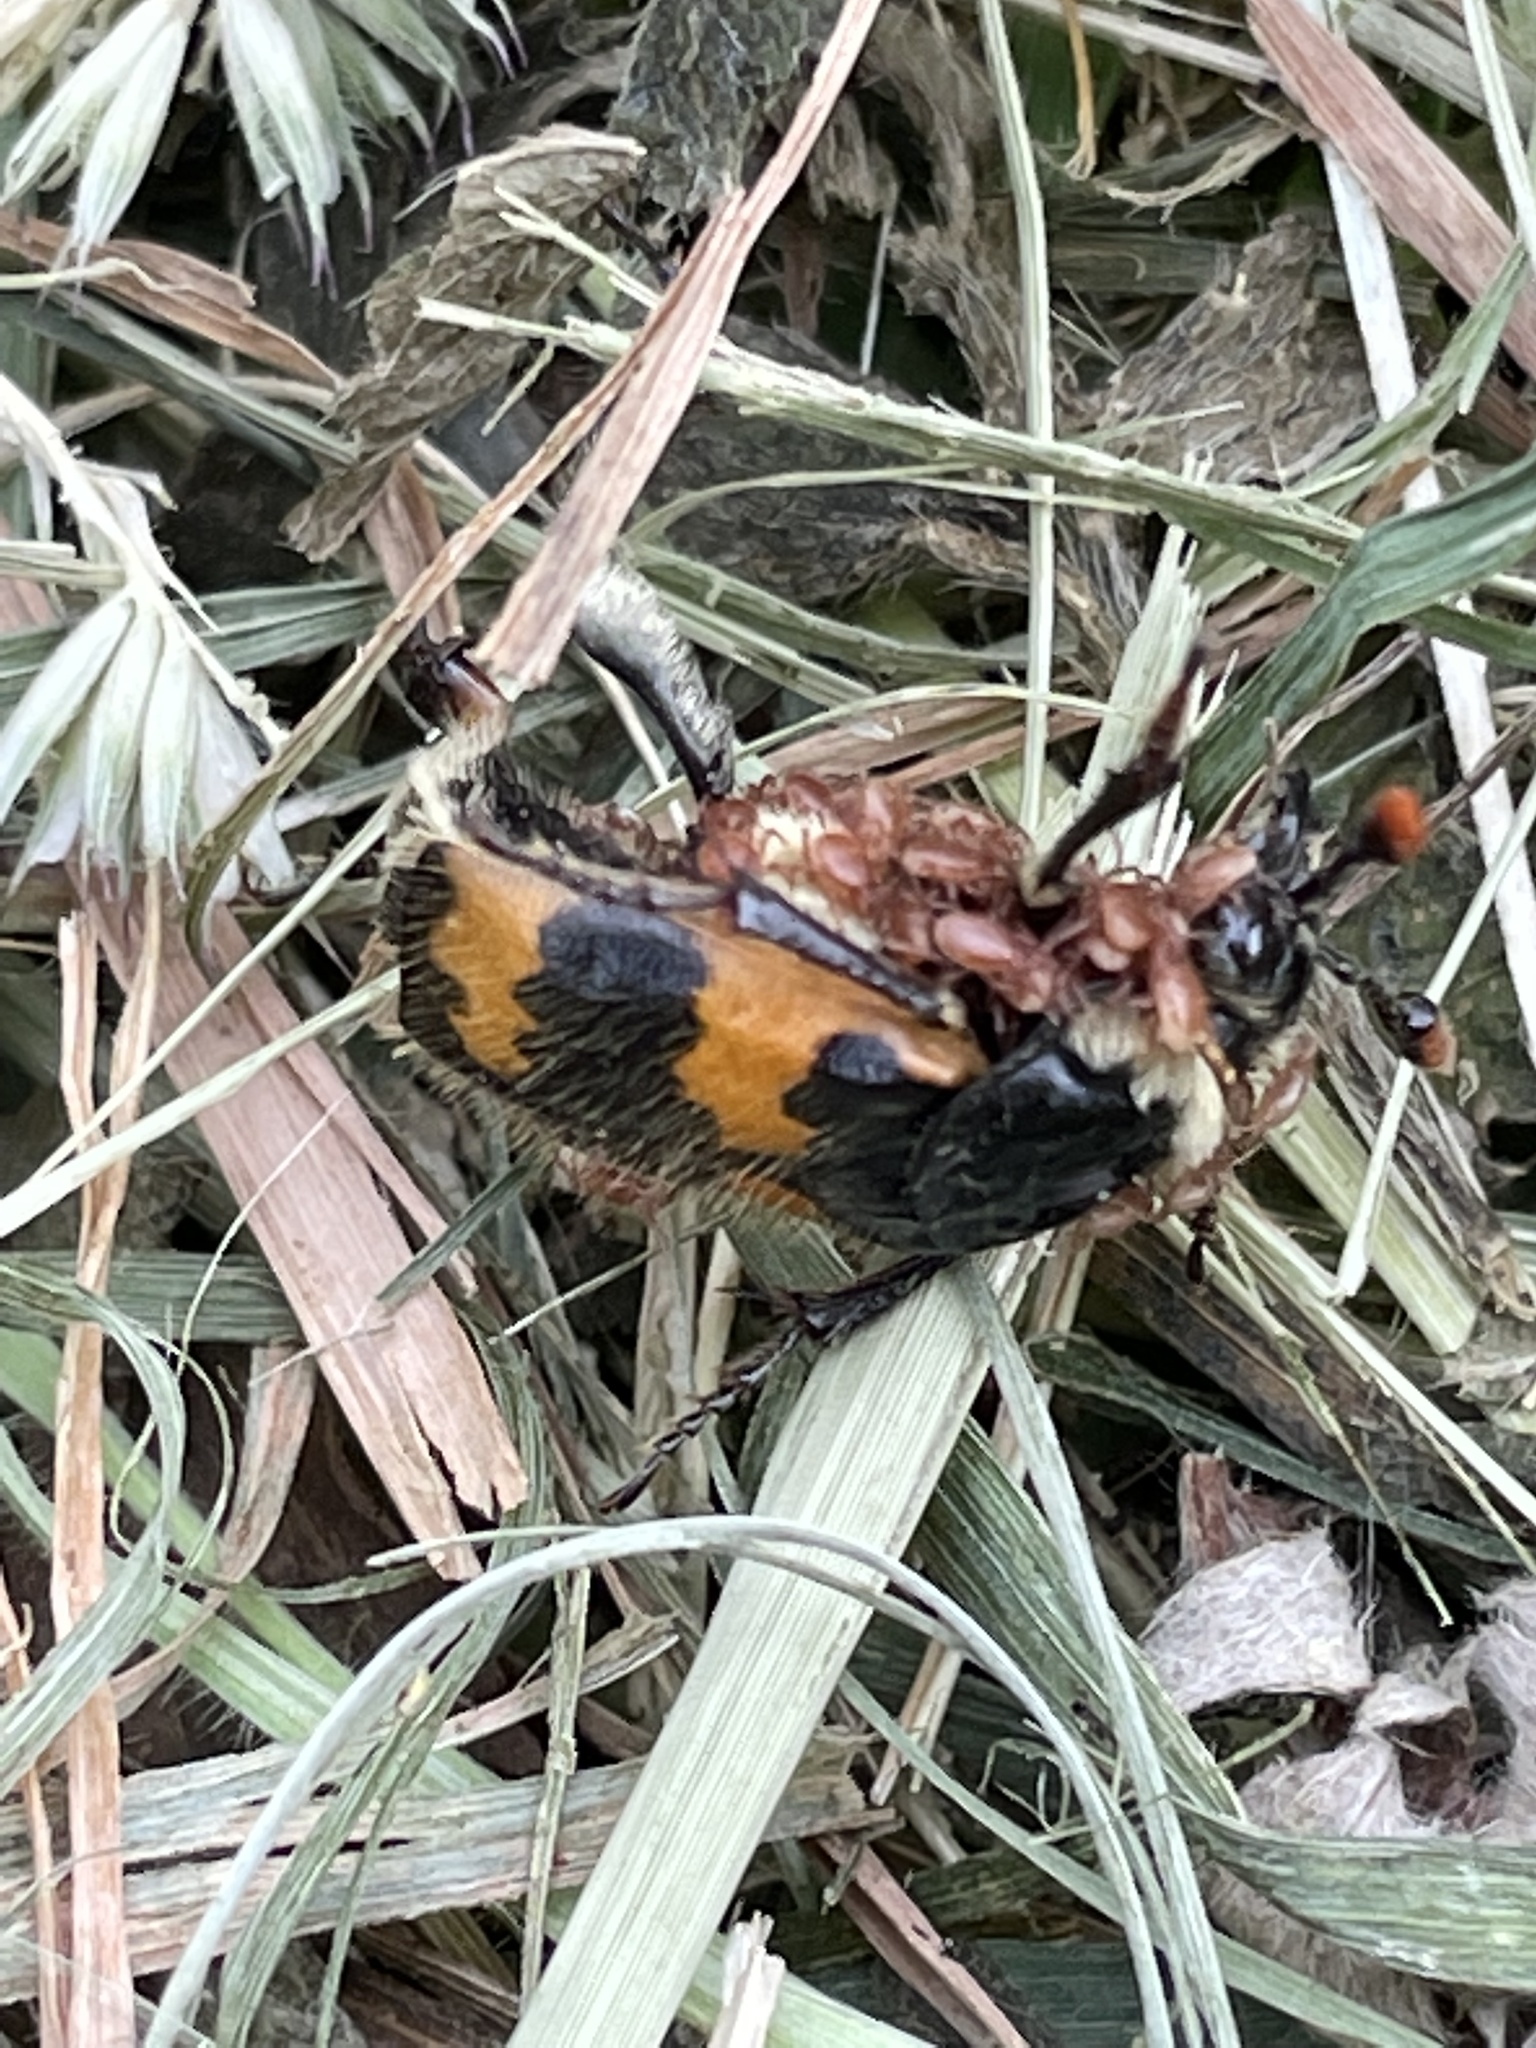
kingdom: Animalia
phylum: Arthropoda
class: Insecta
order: Coleoptera
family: Staphylinidae
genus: Nicrophorus
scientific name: Nicrophorus vespillo
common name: Common burying beetle
